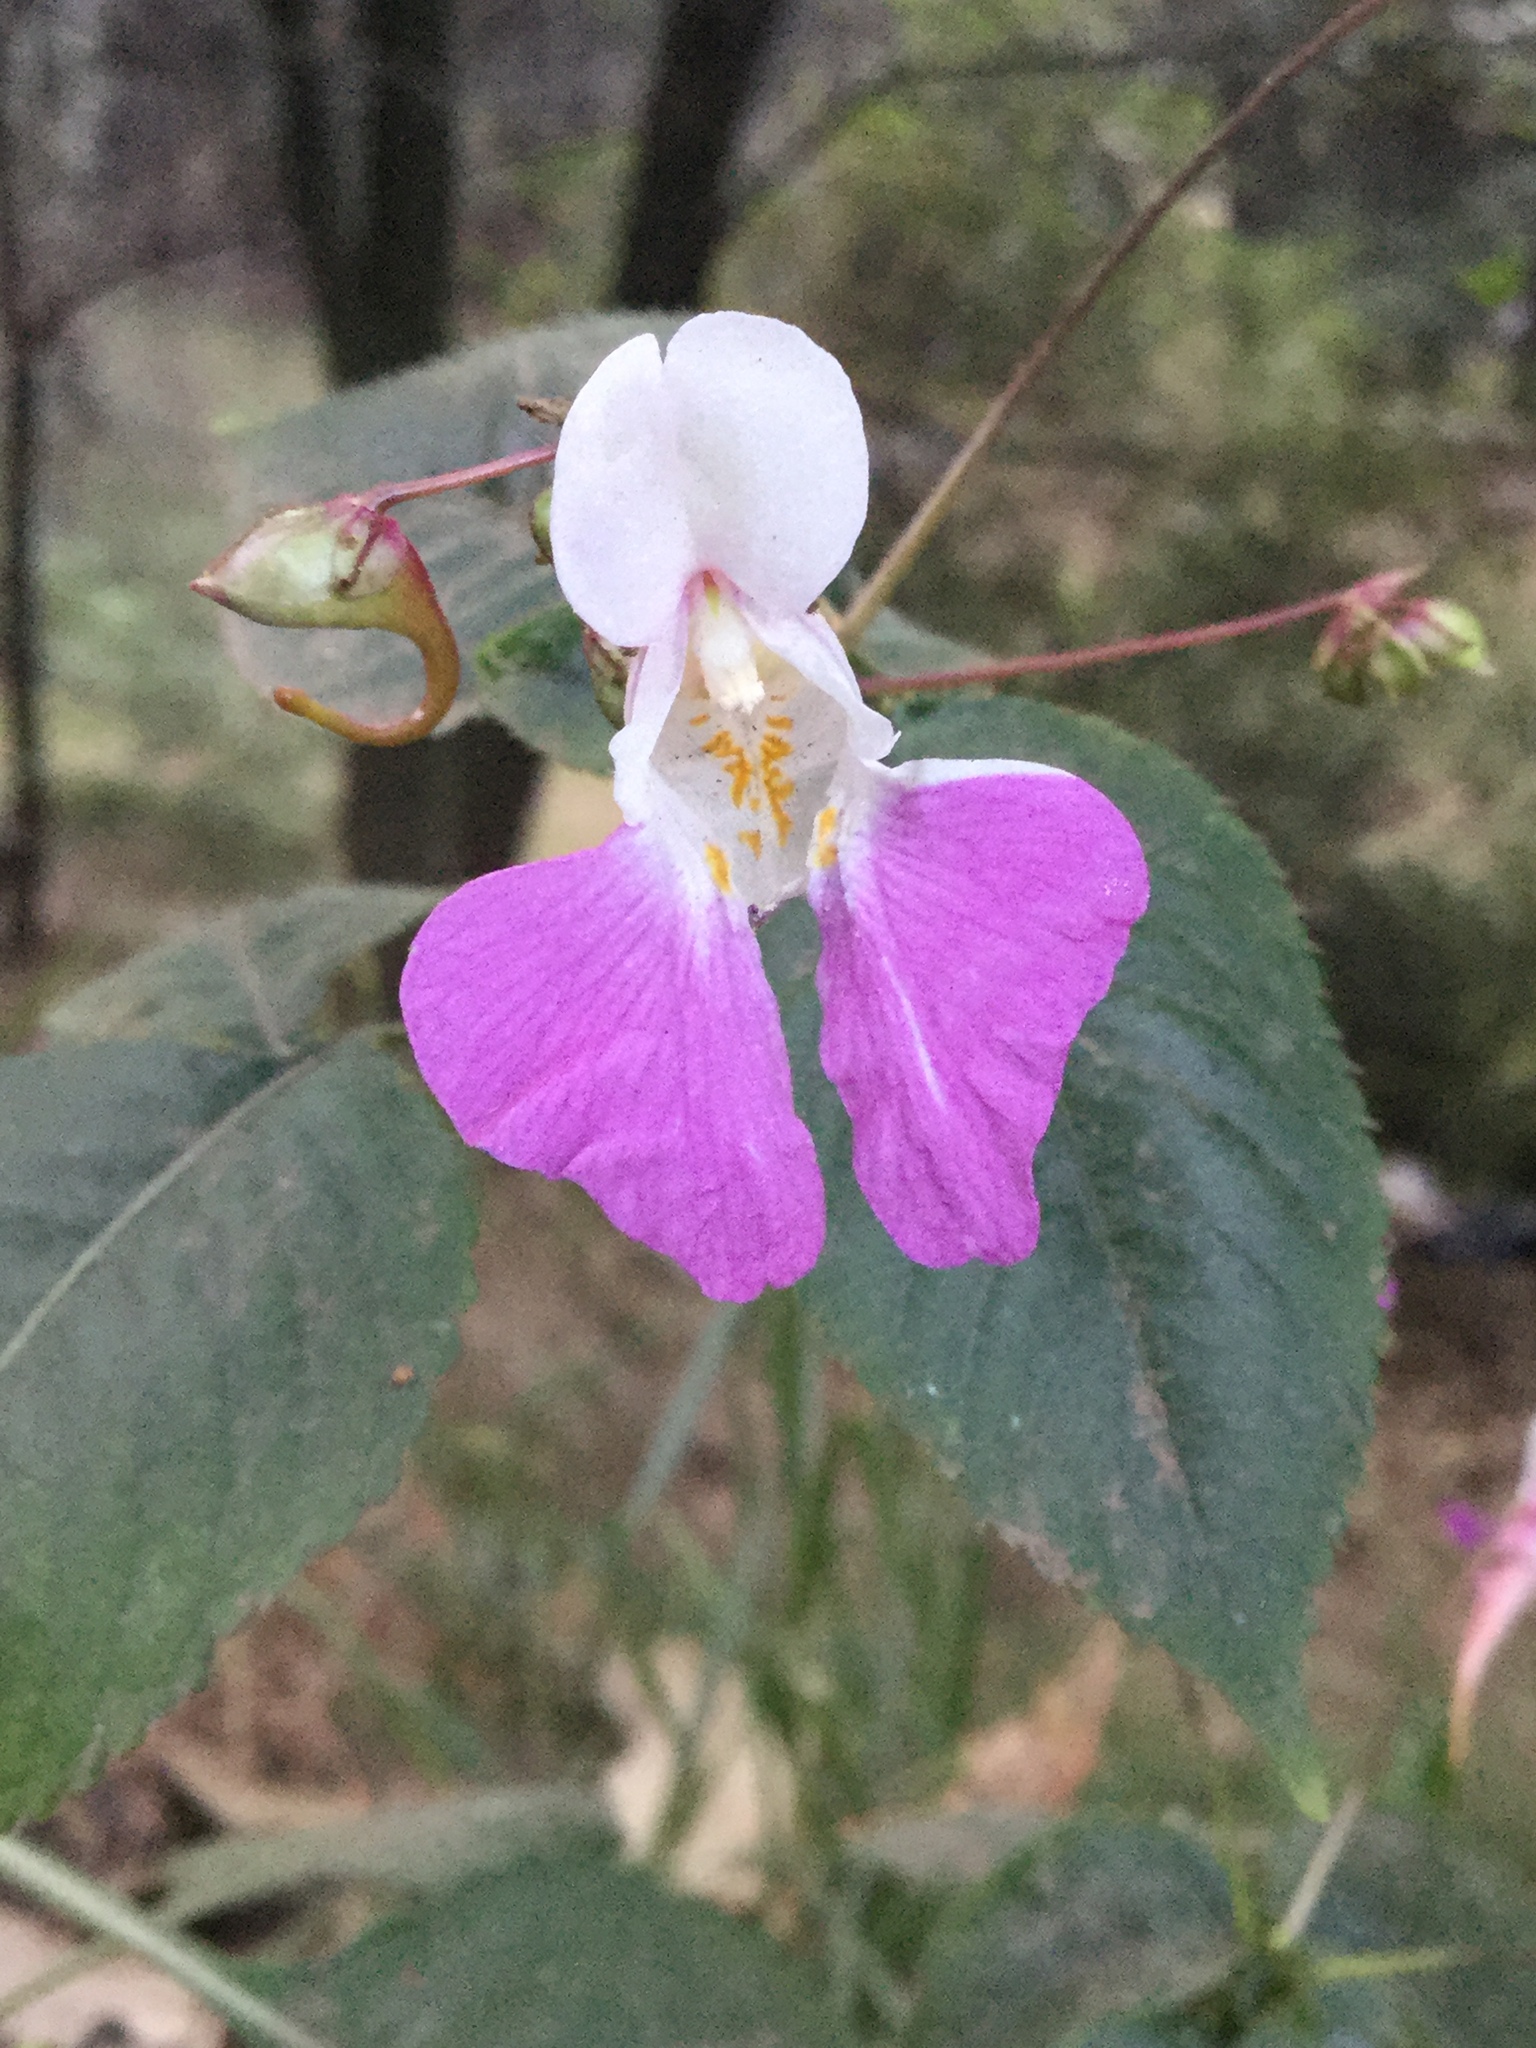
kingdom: Plantae
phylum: Tracheophyta
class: Magnoliopsida
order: Ericales
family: Balsaminaceae
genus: Impatiens
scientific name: Impatiens balfourii
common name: Balfour's touch-me-not
